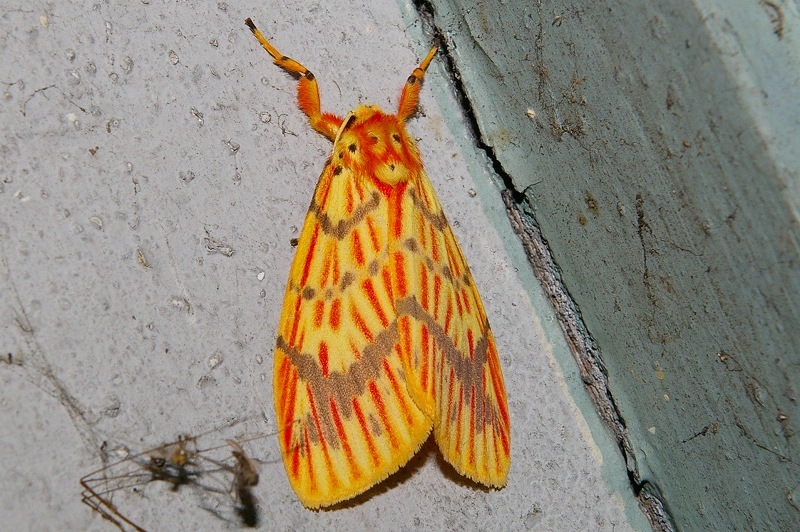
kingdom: Animalia
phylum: Arthropoda
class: Insecta
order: Lepidoptera
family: Erebidae
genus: Barsine
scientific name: Barsine striata
